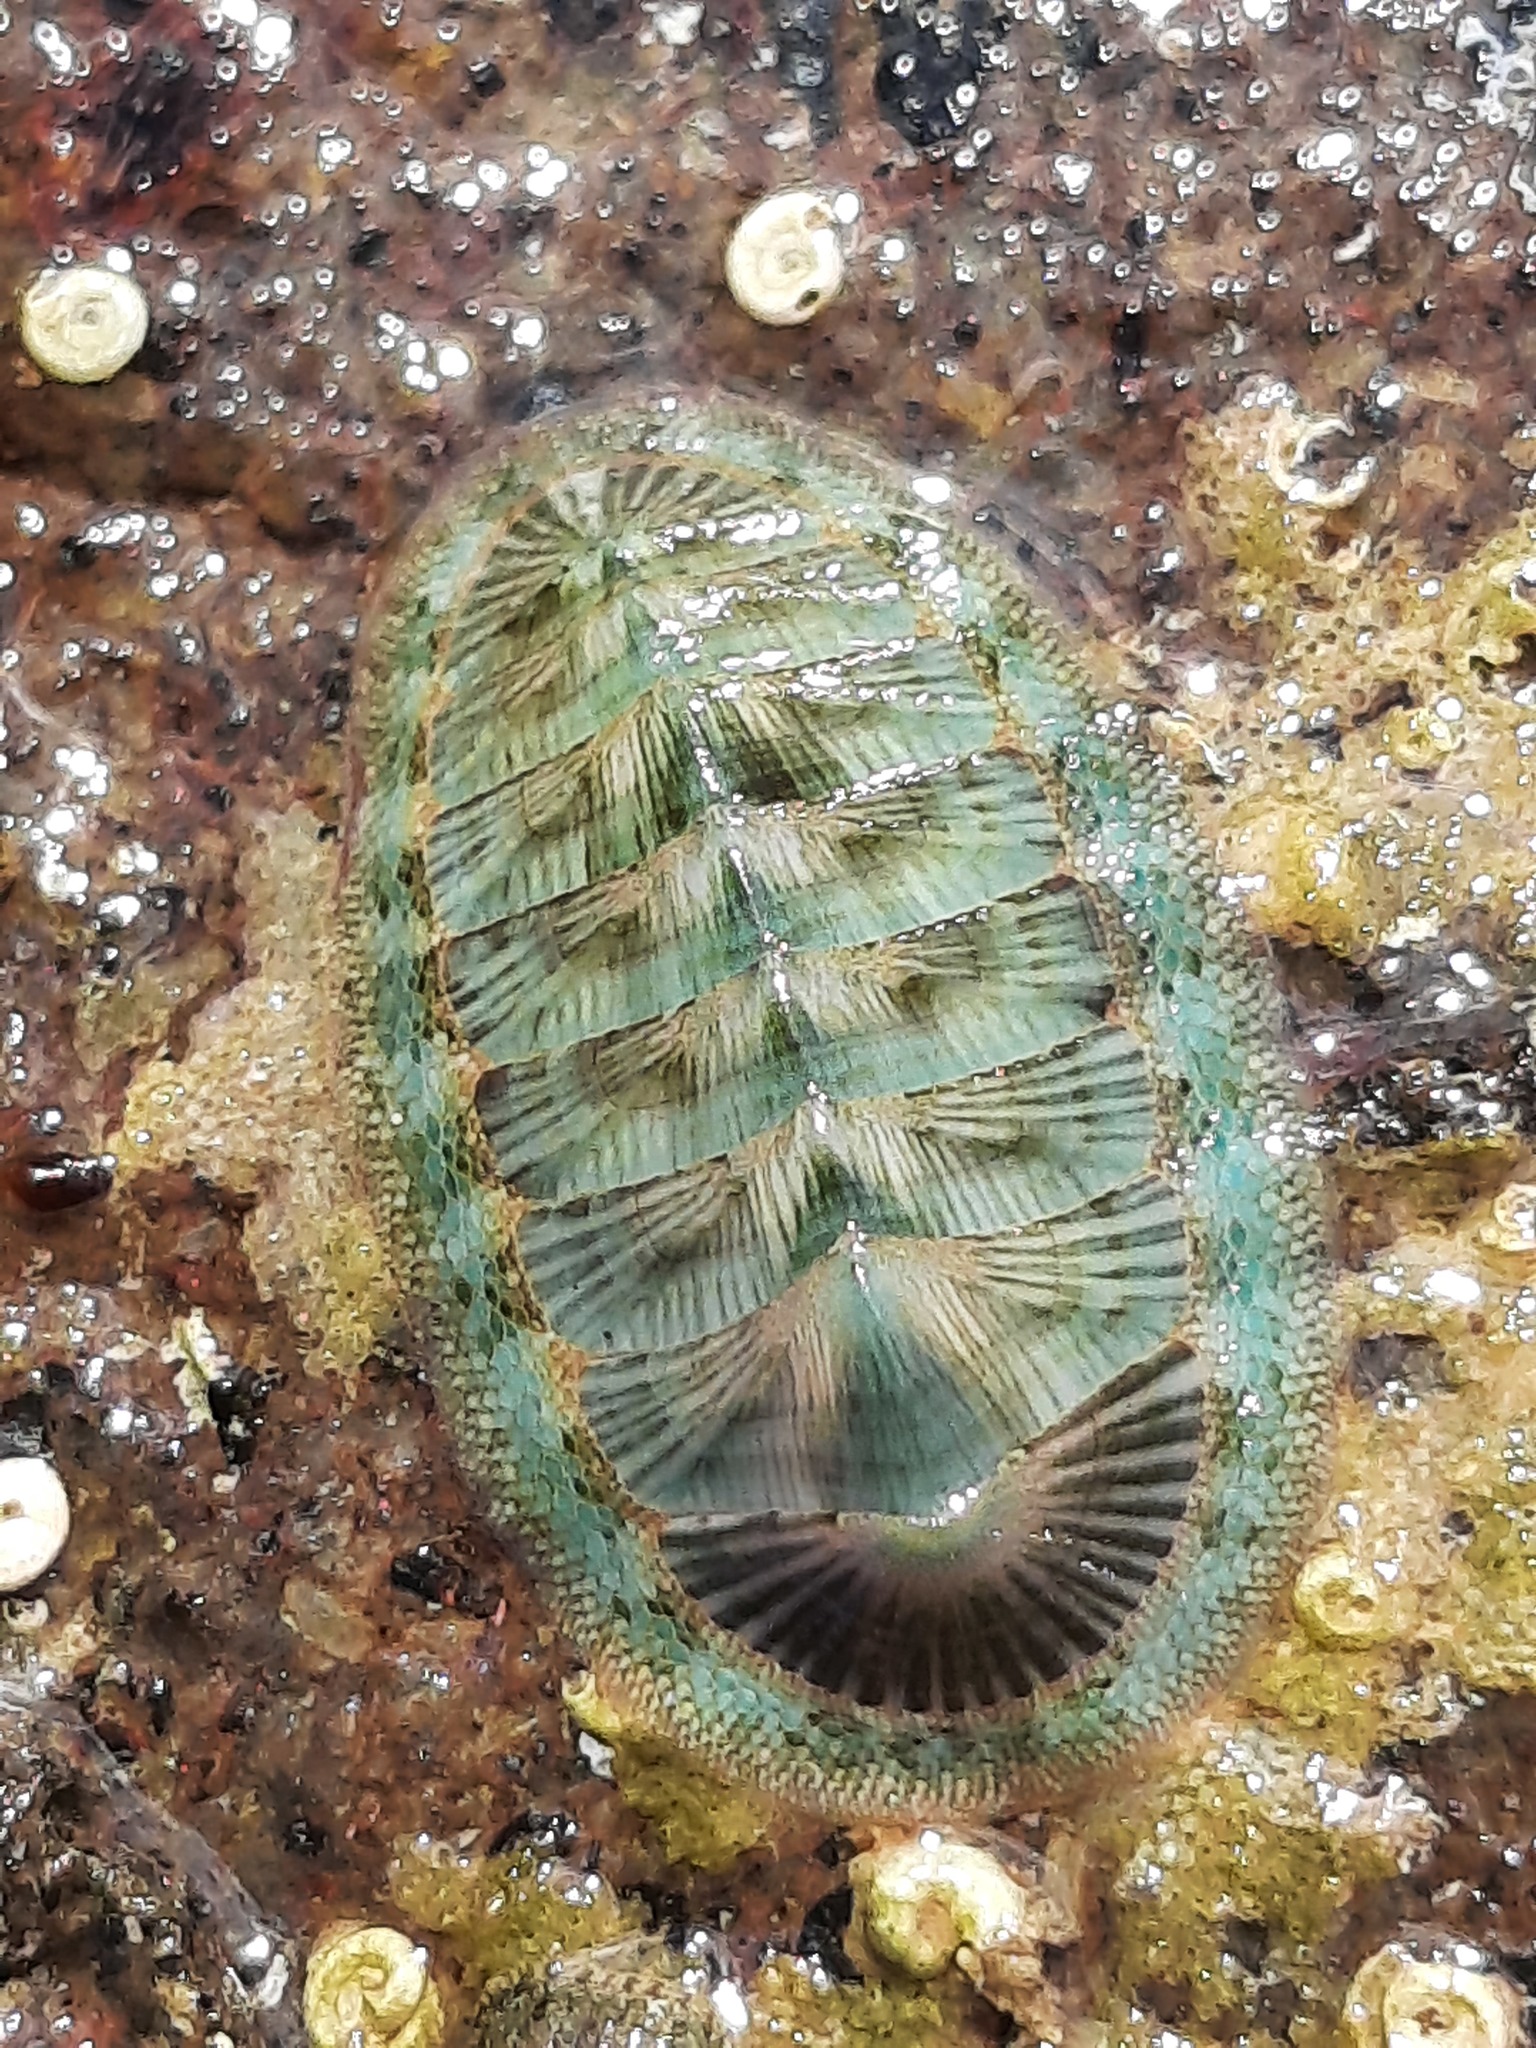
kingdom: Animalia
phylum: Mollusca
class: Polyplacophora
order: Chitonida
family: Chitonidae
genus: Rhyssoplax
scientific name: Rhyssoplax stangeri
